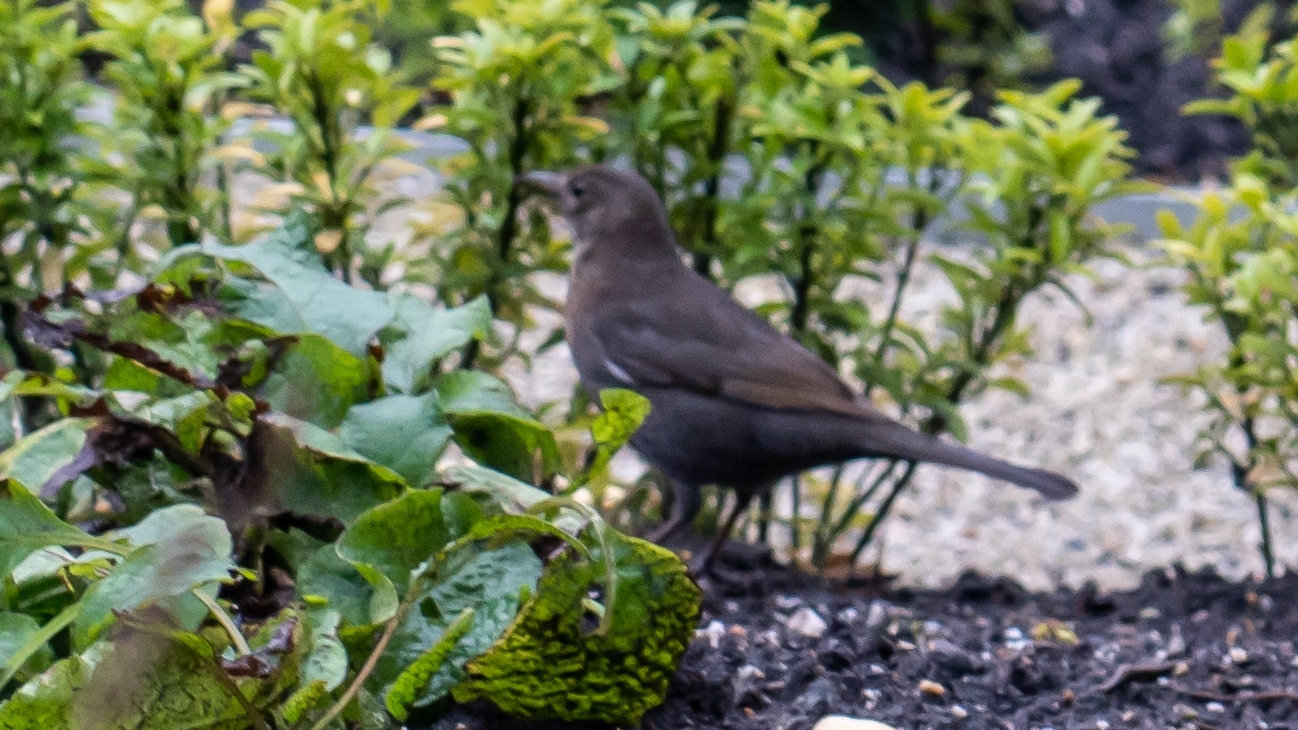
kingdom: Animalia
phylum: Chordata
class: Aves
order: Passeriformes
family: Turdidae
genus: Turdus
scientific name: Turdus merula
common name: Common blackbird
